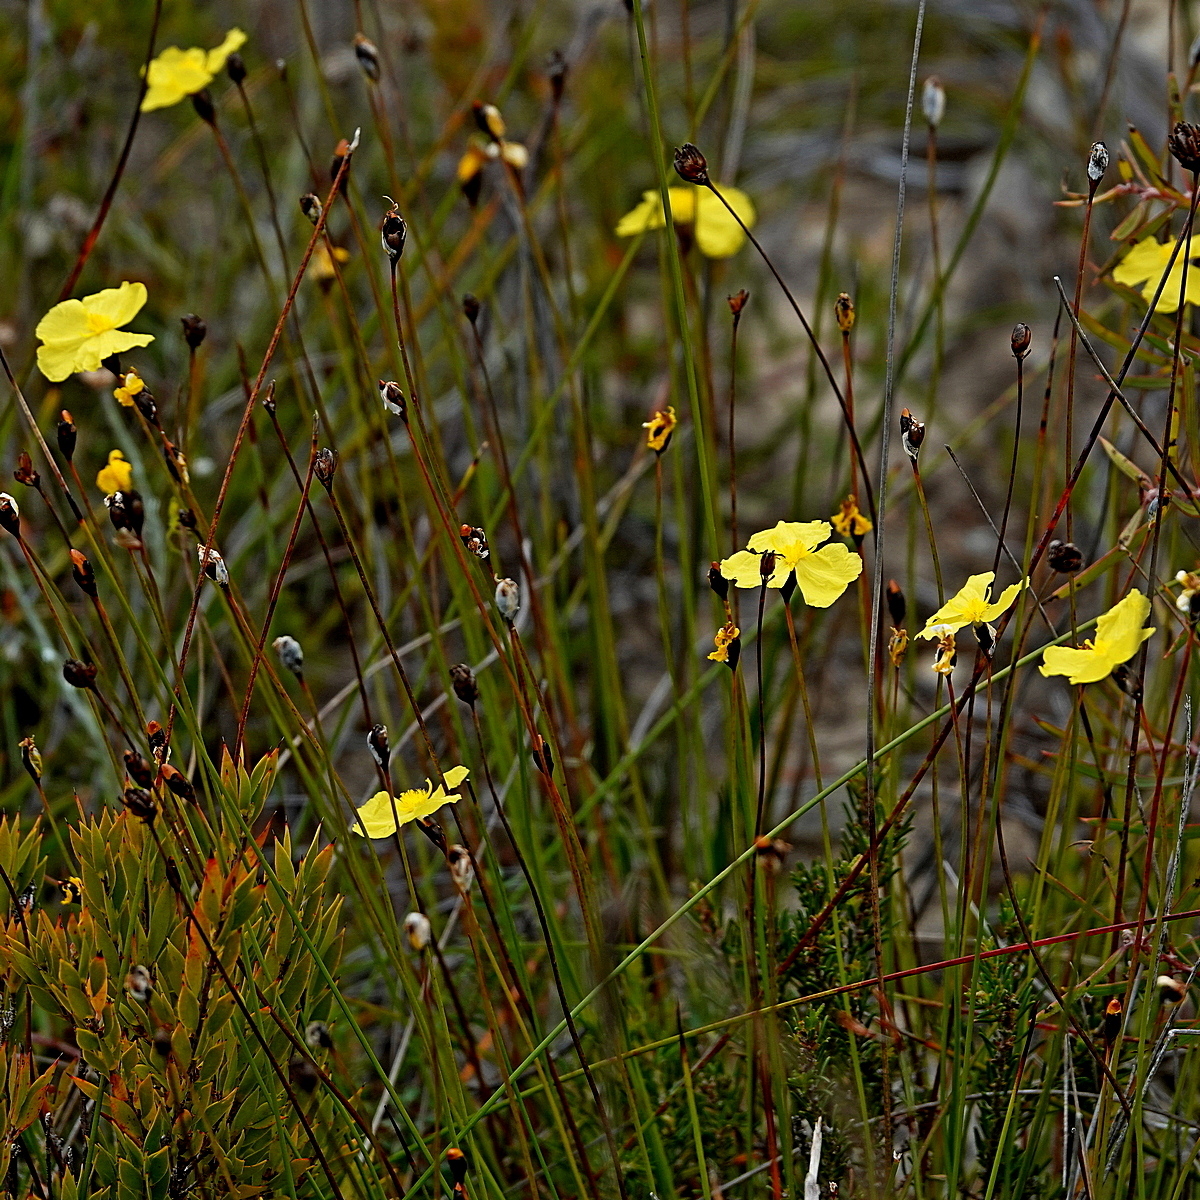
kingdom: Plantae
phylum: Tracheophyta
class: Liliopsida
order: Poales
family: Xyridaceae
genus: Xyris
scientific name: Xyris gracilis
